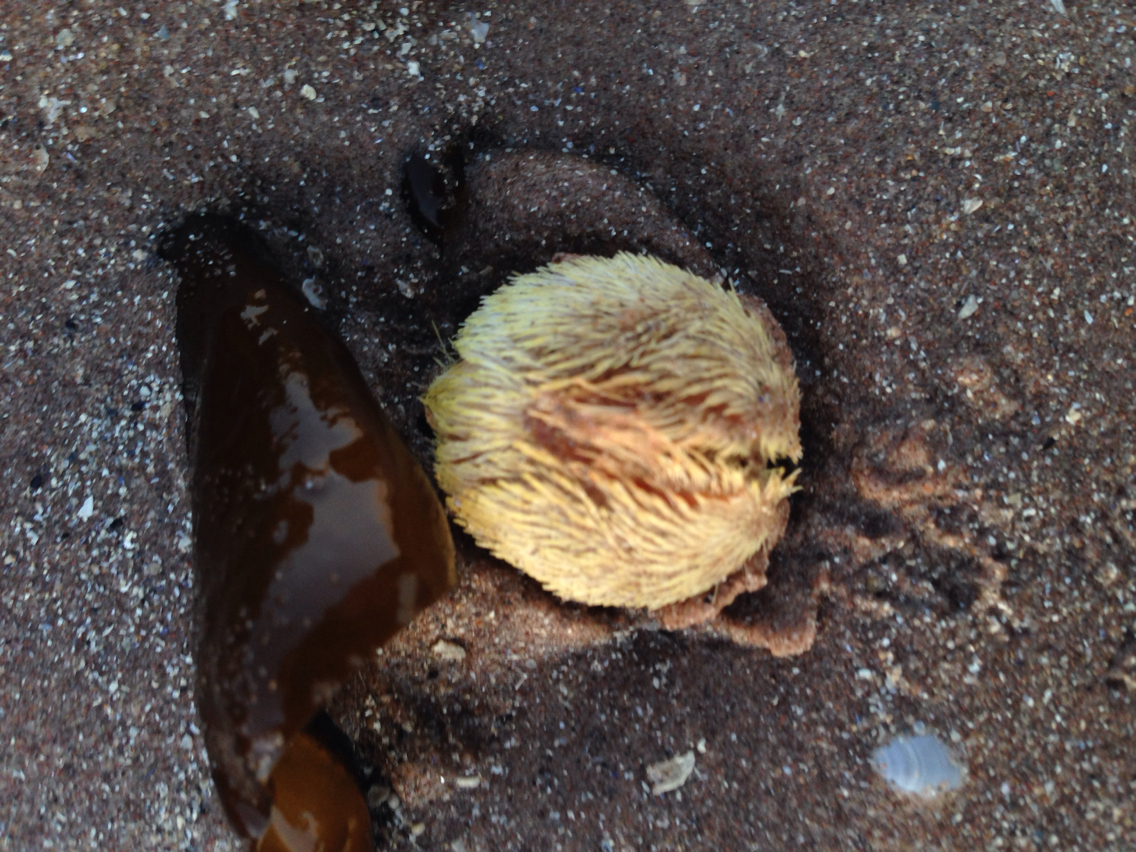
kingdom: Animalia
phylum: Echinodermata
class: Echinoidea
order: Spatangoida
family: Loveniidae
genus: Echinocardium
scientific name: Echinocardium cordatum
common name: Heart-urchin
